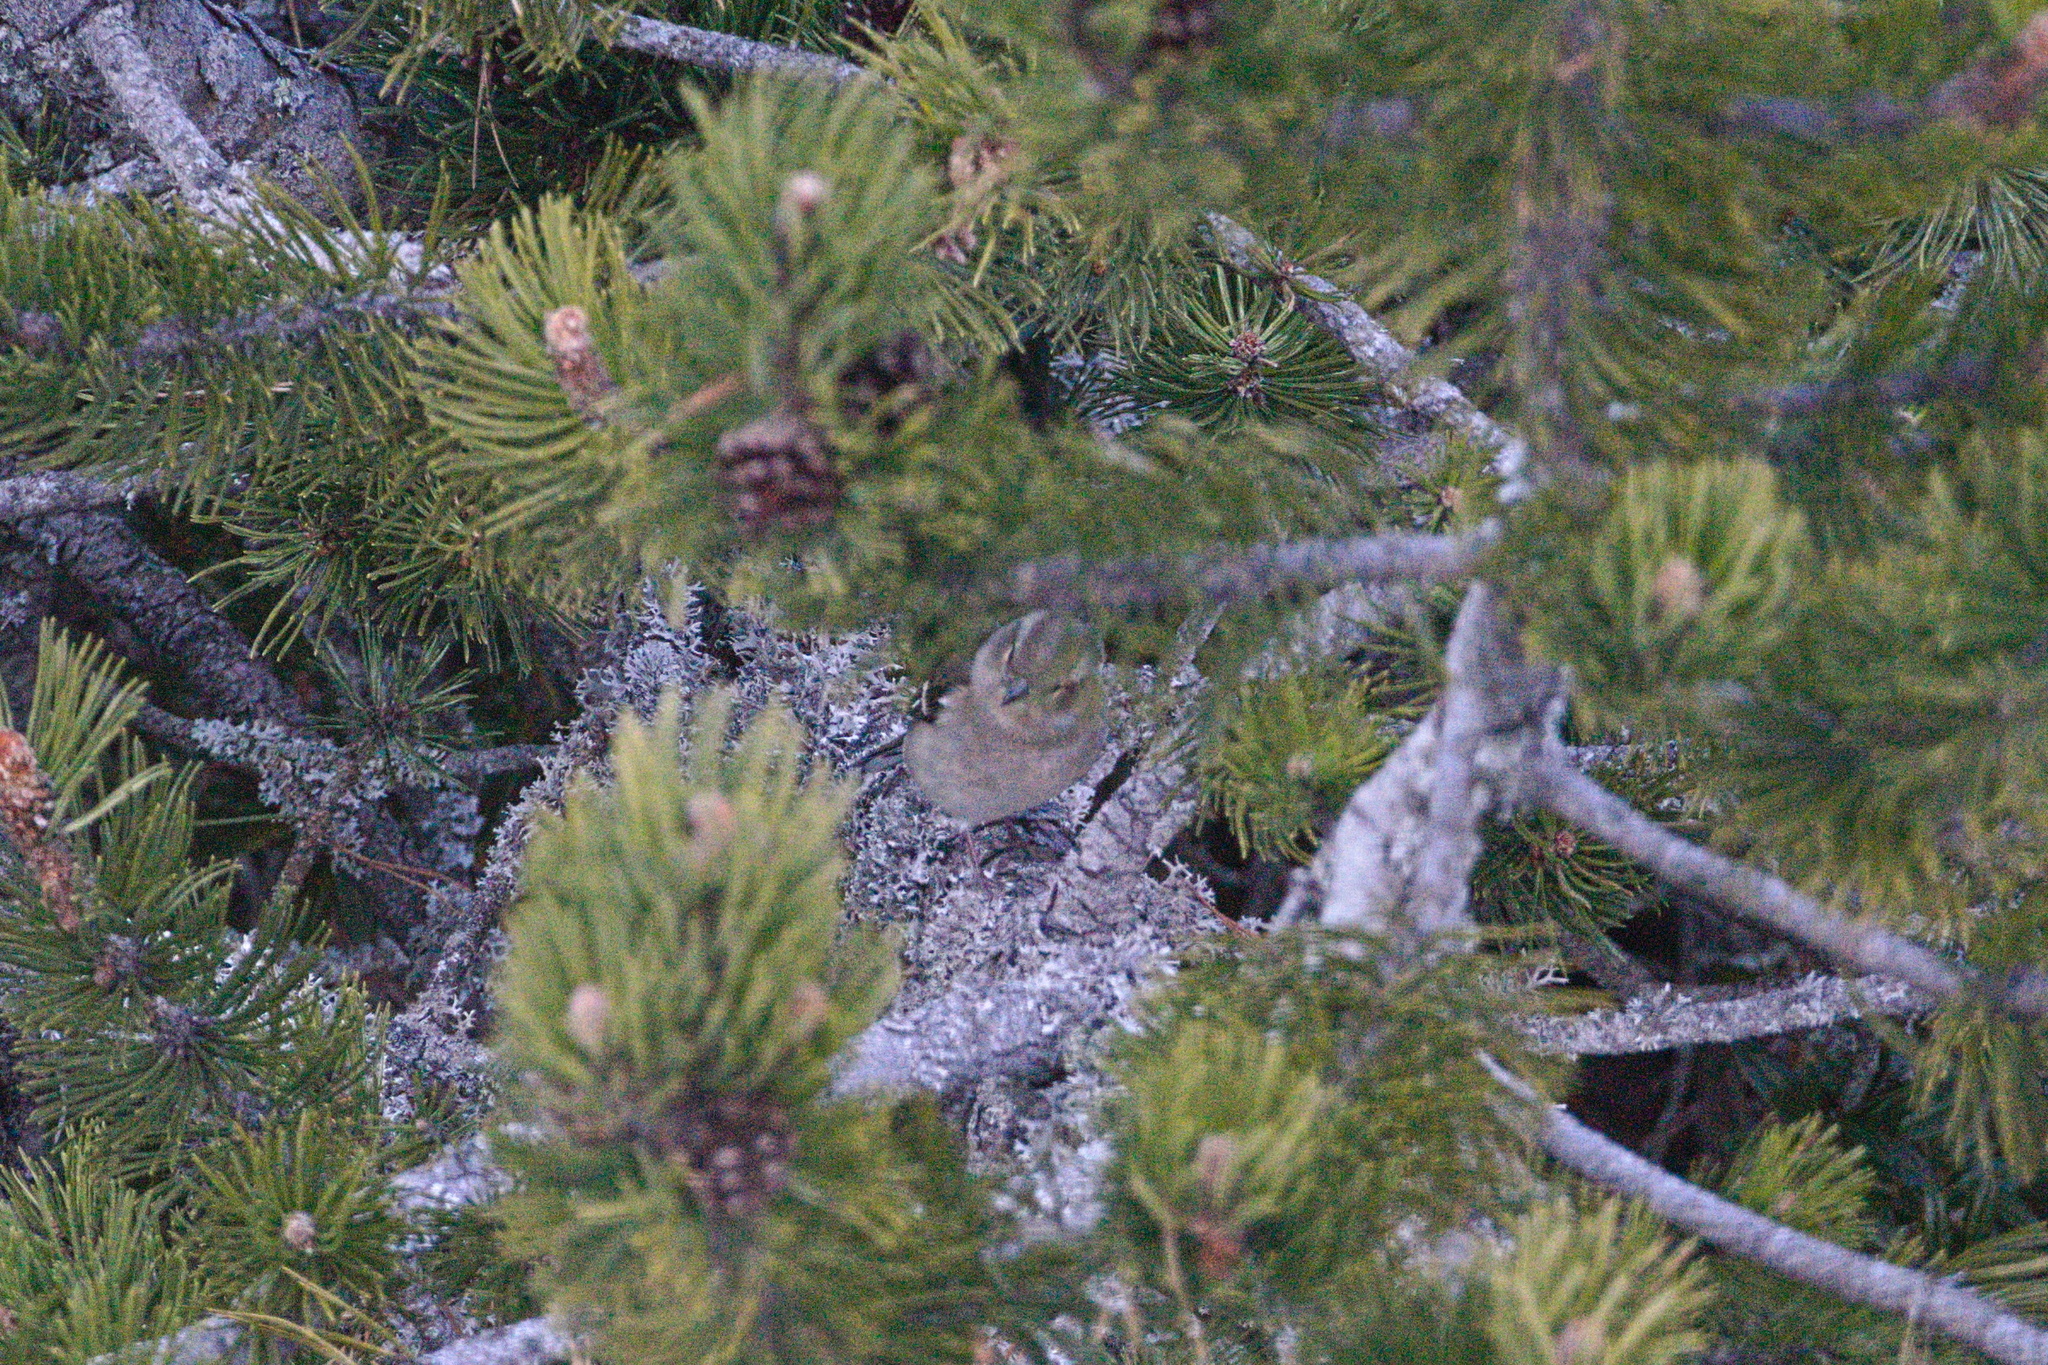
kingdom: Animalia
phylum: Chordata
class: Aves
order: Passeriformes
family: Fringillidae
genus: Fringilla
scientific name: Fringilla coelebs
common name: Common chaffinch
